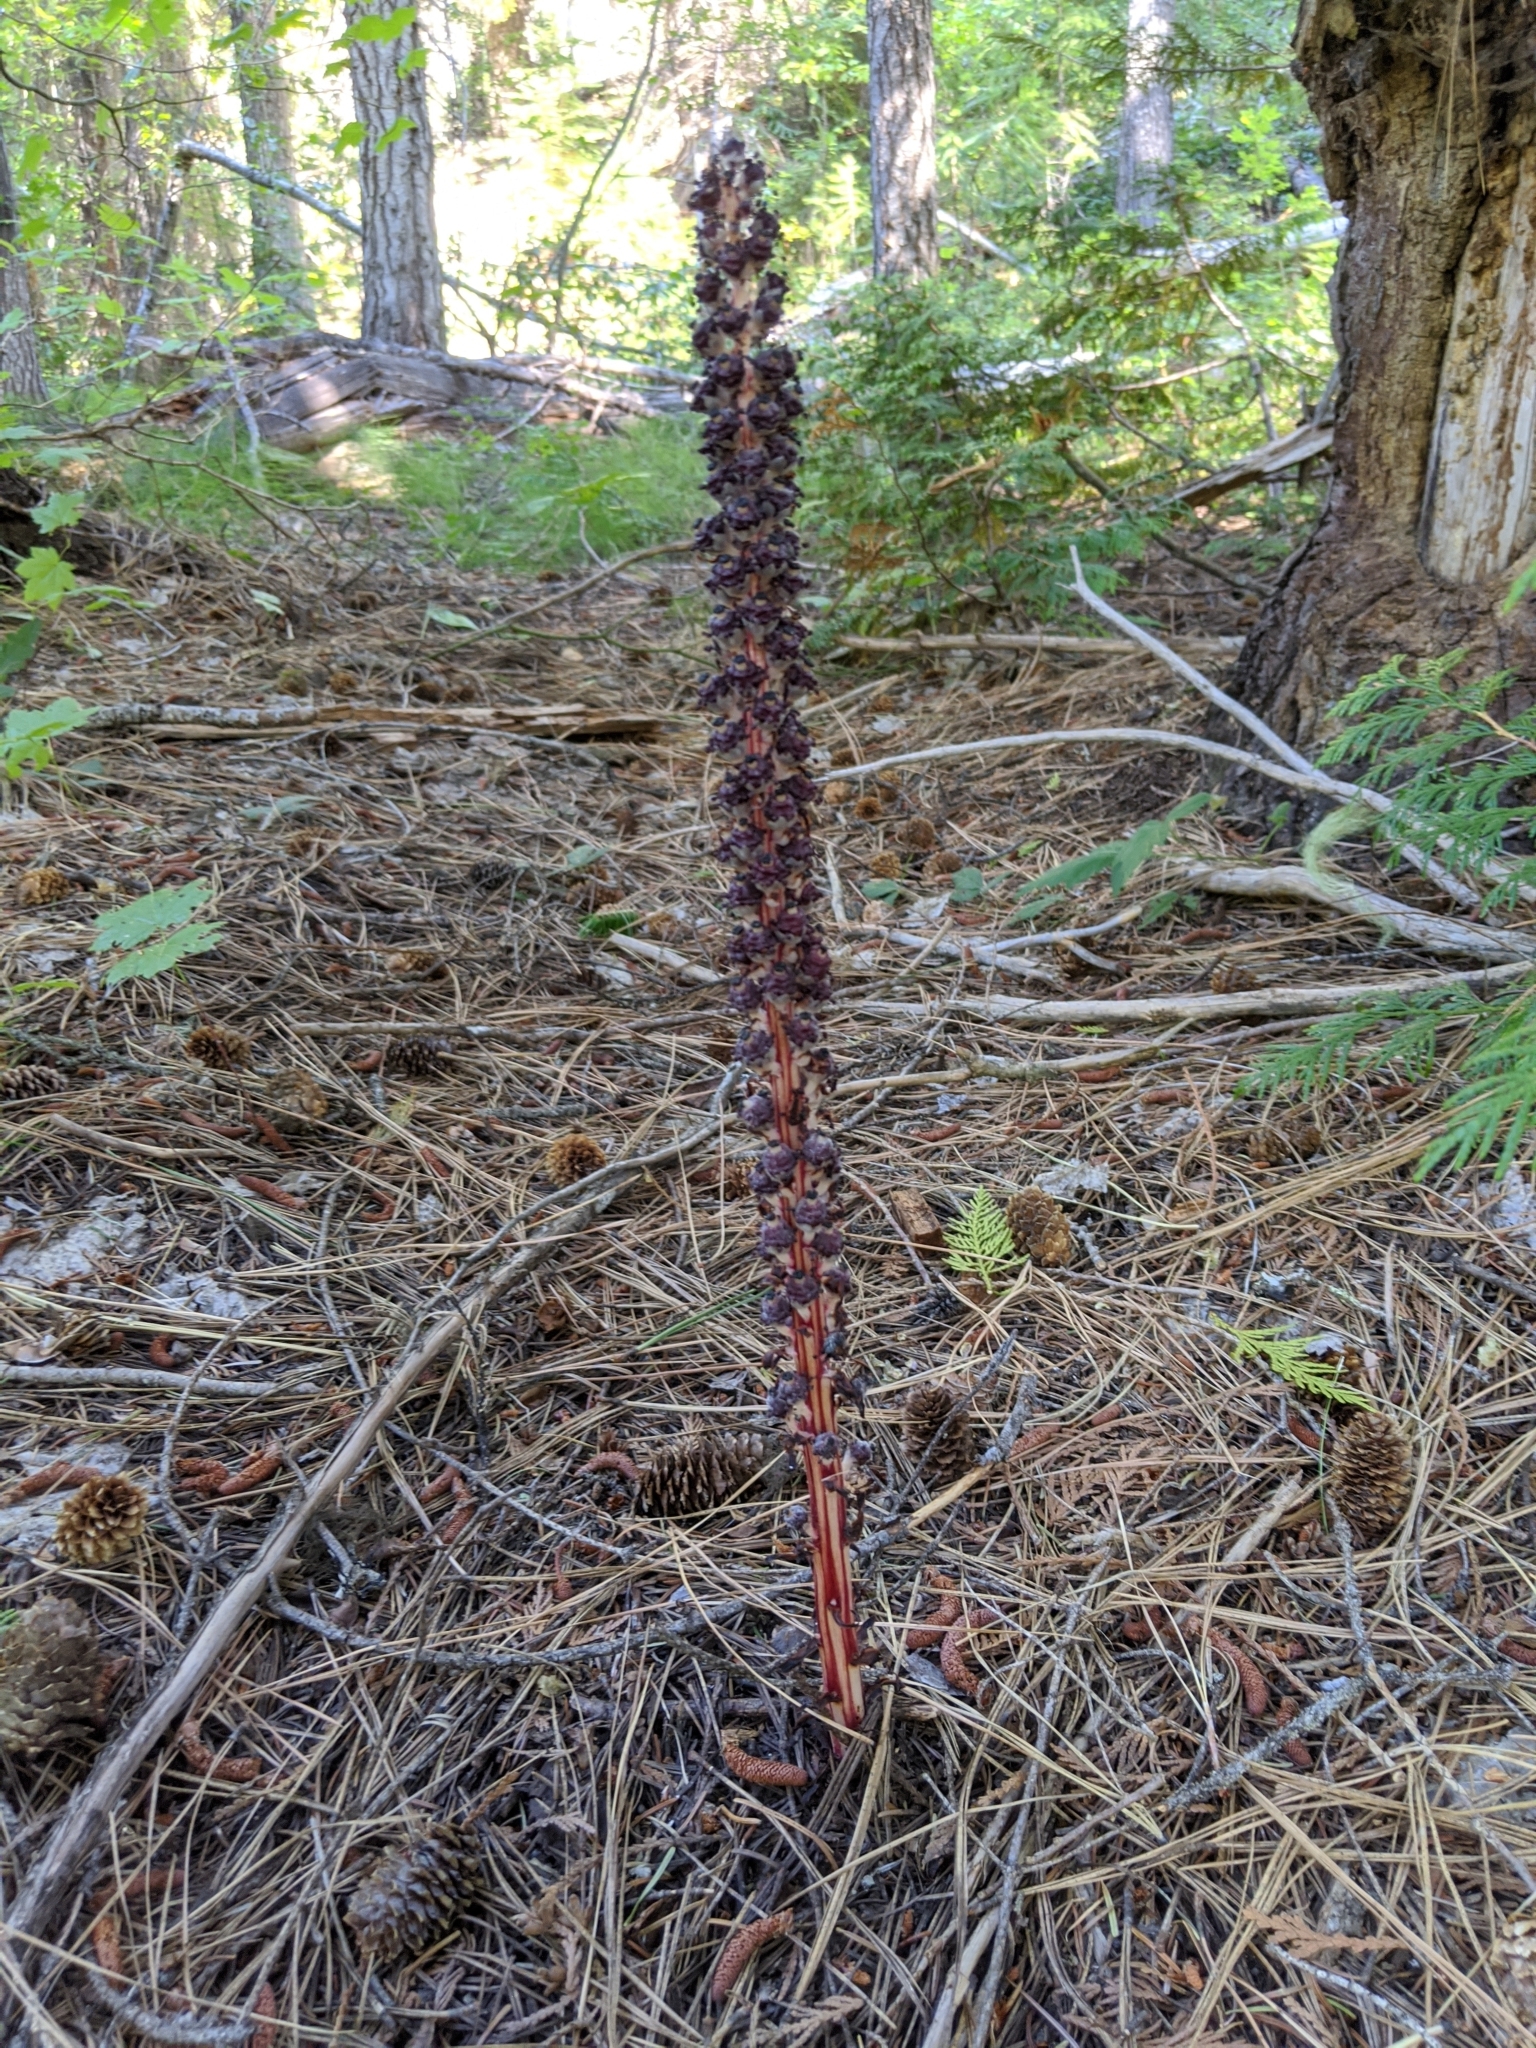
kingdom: Plantae
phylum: Tracheophyta
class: Magnoliopsida
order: Ericales
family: Ericaceae
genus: Allotropa
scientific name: Allotropa virgata
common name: Candy-striped allotropa
